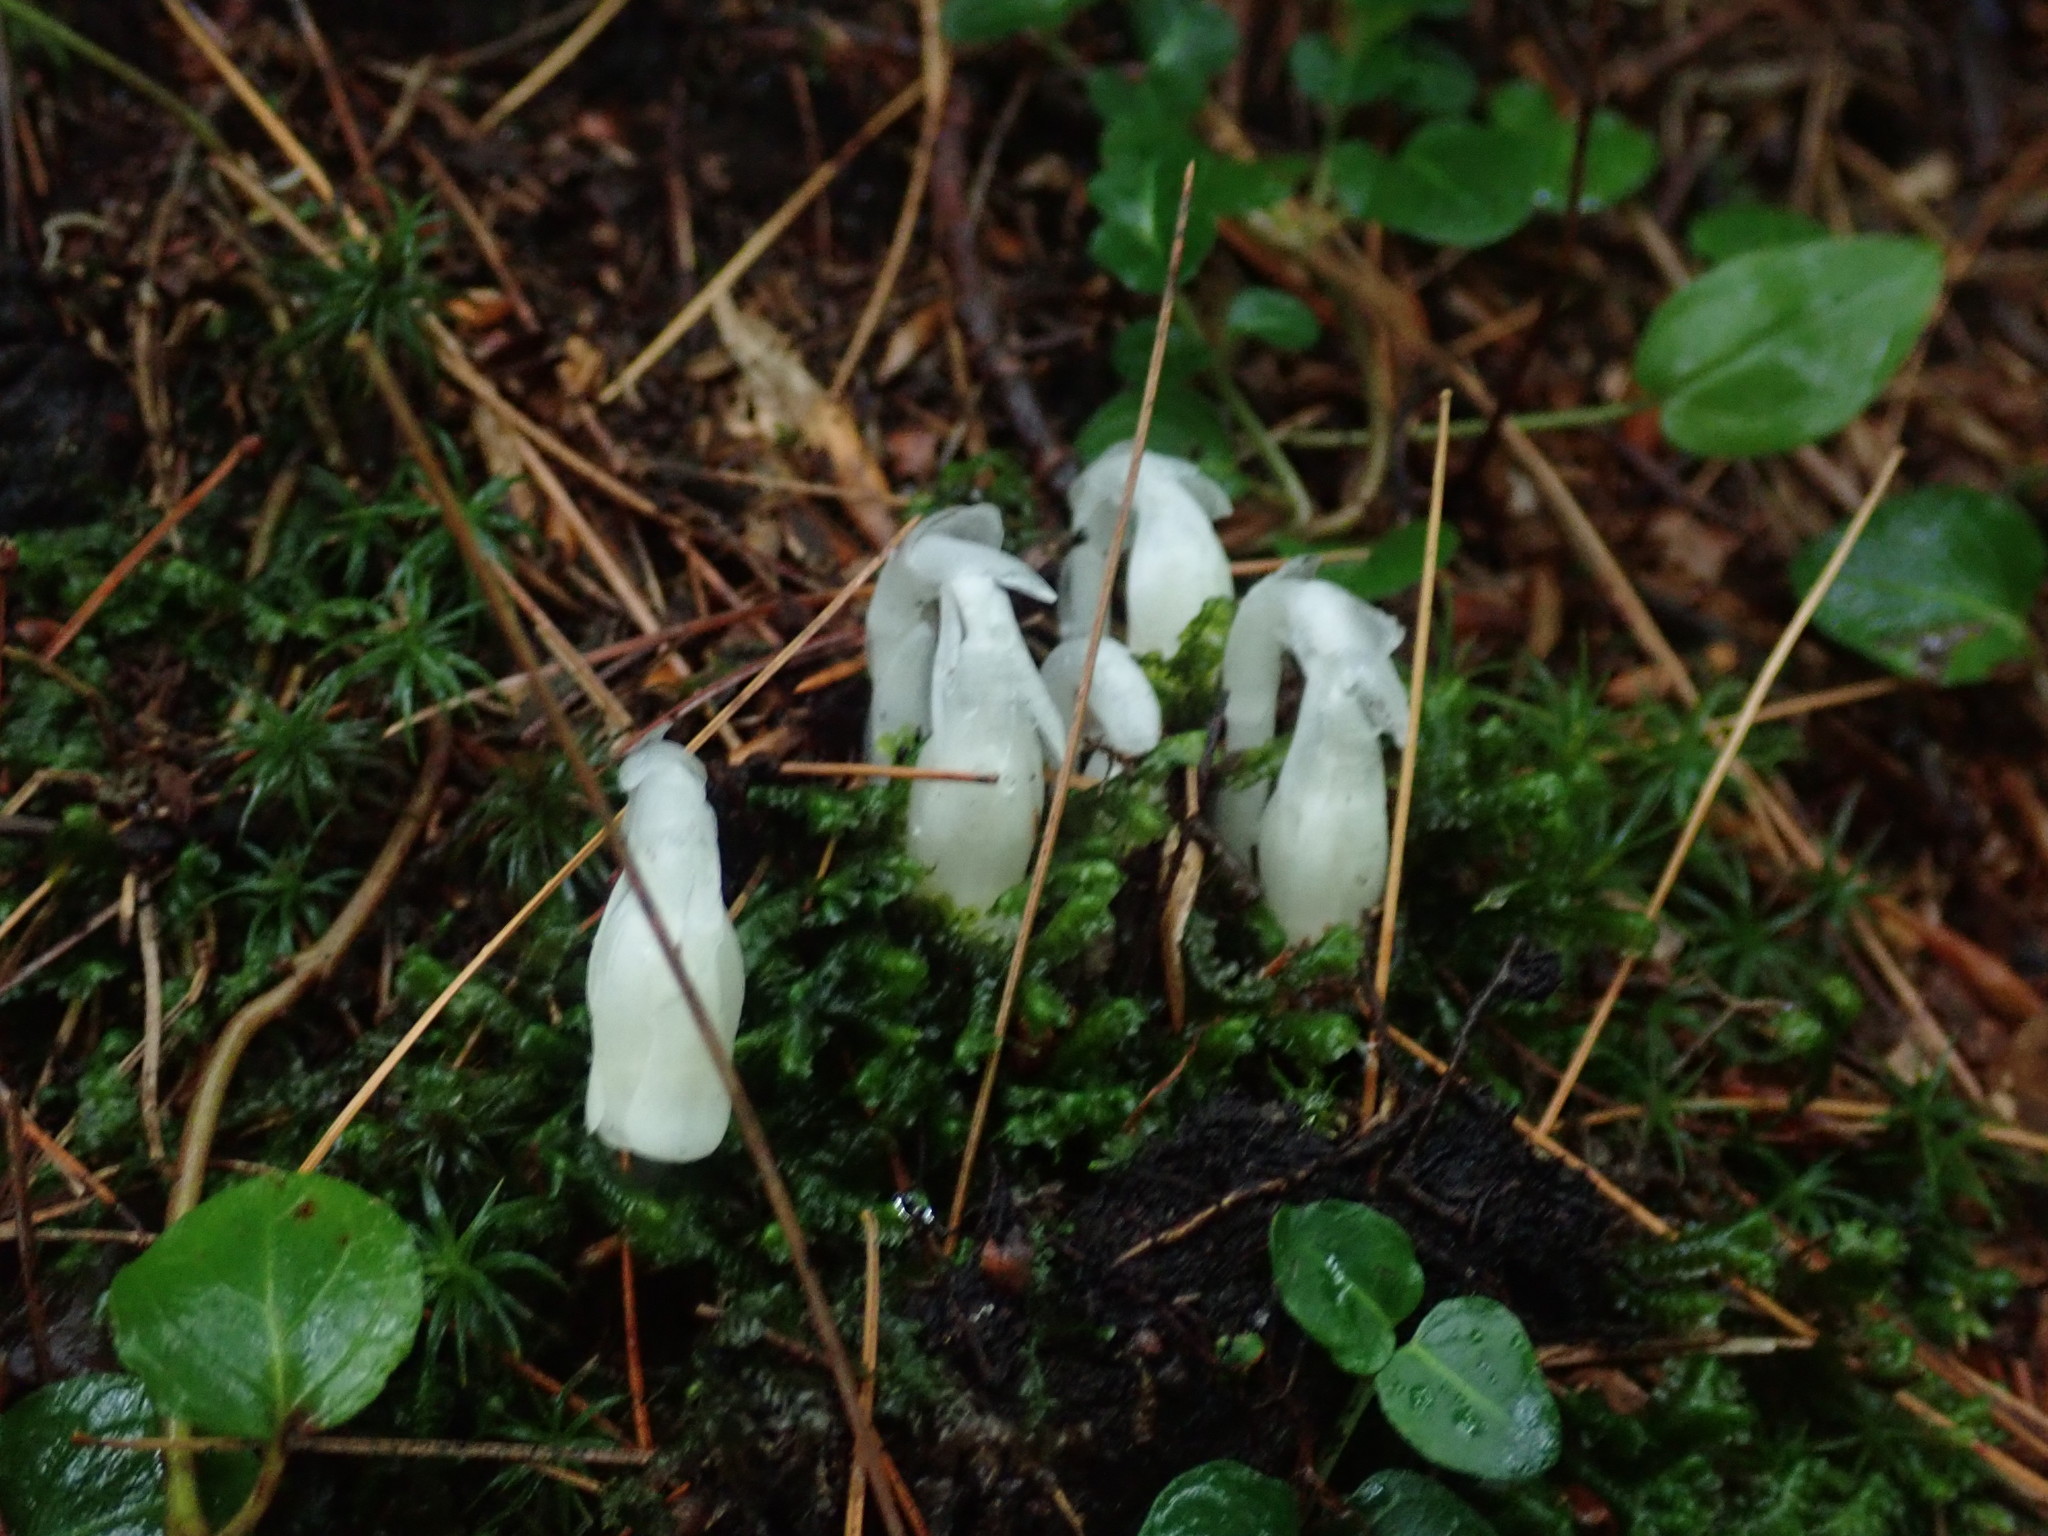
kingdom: Plantae
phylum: Tracheophyta
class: Magnoliopsida
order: Ericales
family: Ericaceae
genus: Monotropa
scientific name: Monotropa uniflora
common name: Convulsion root
